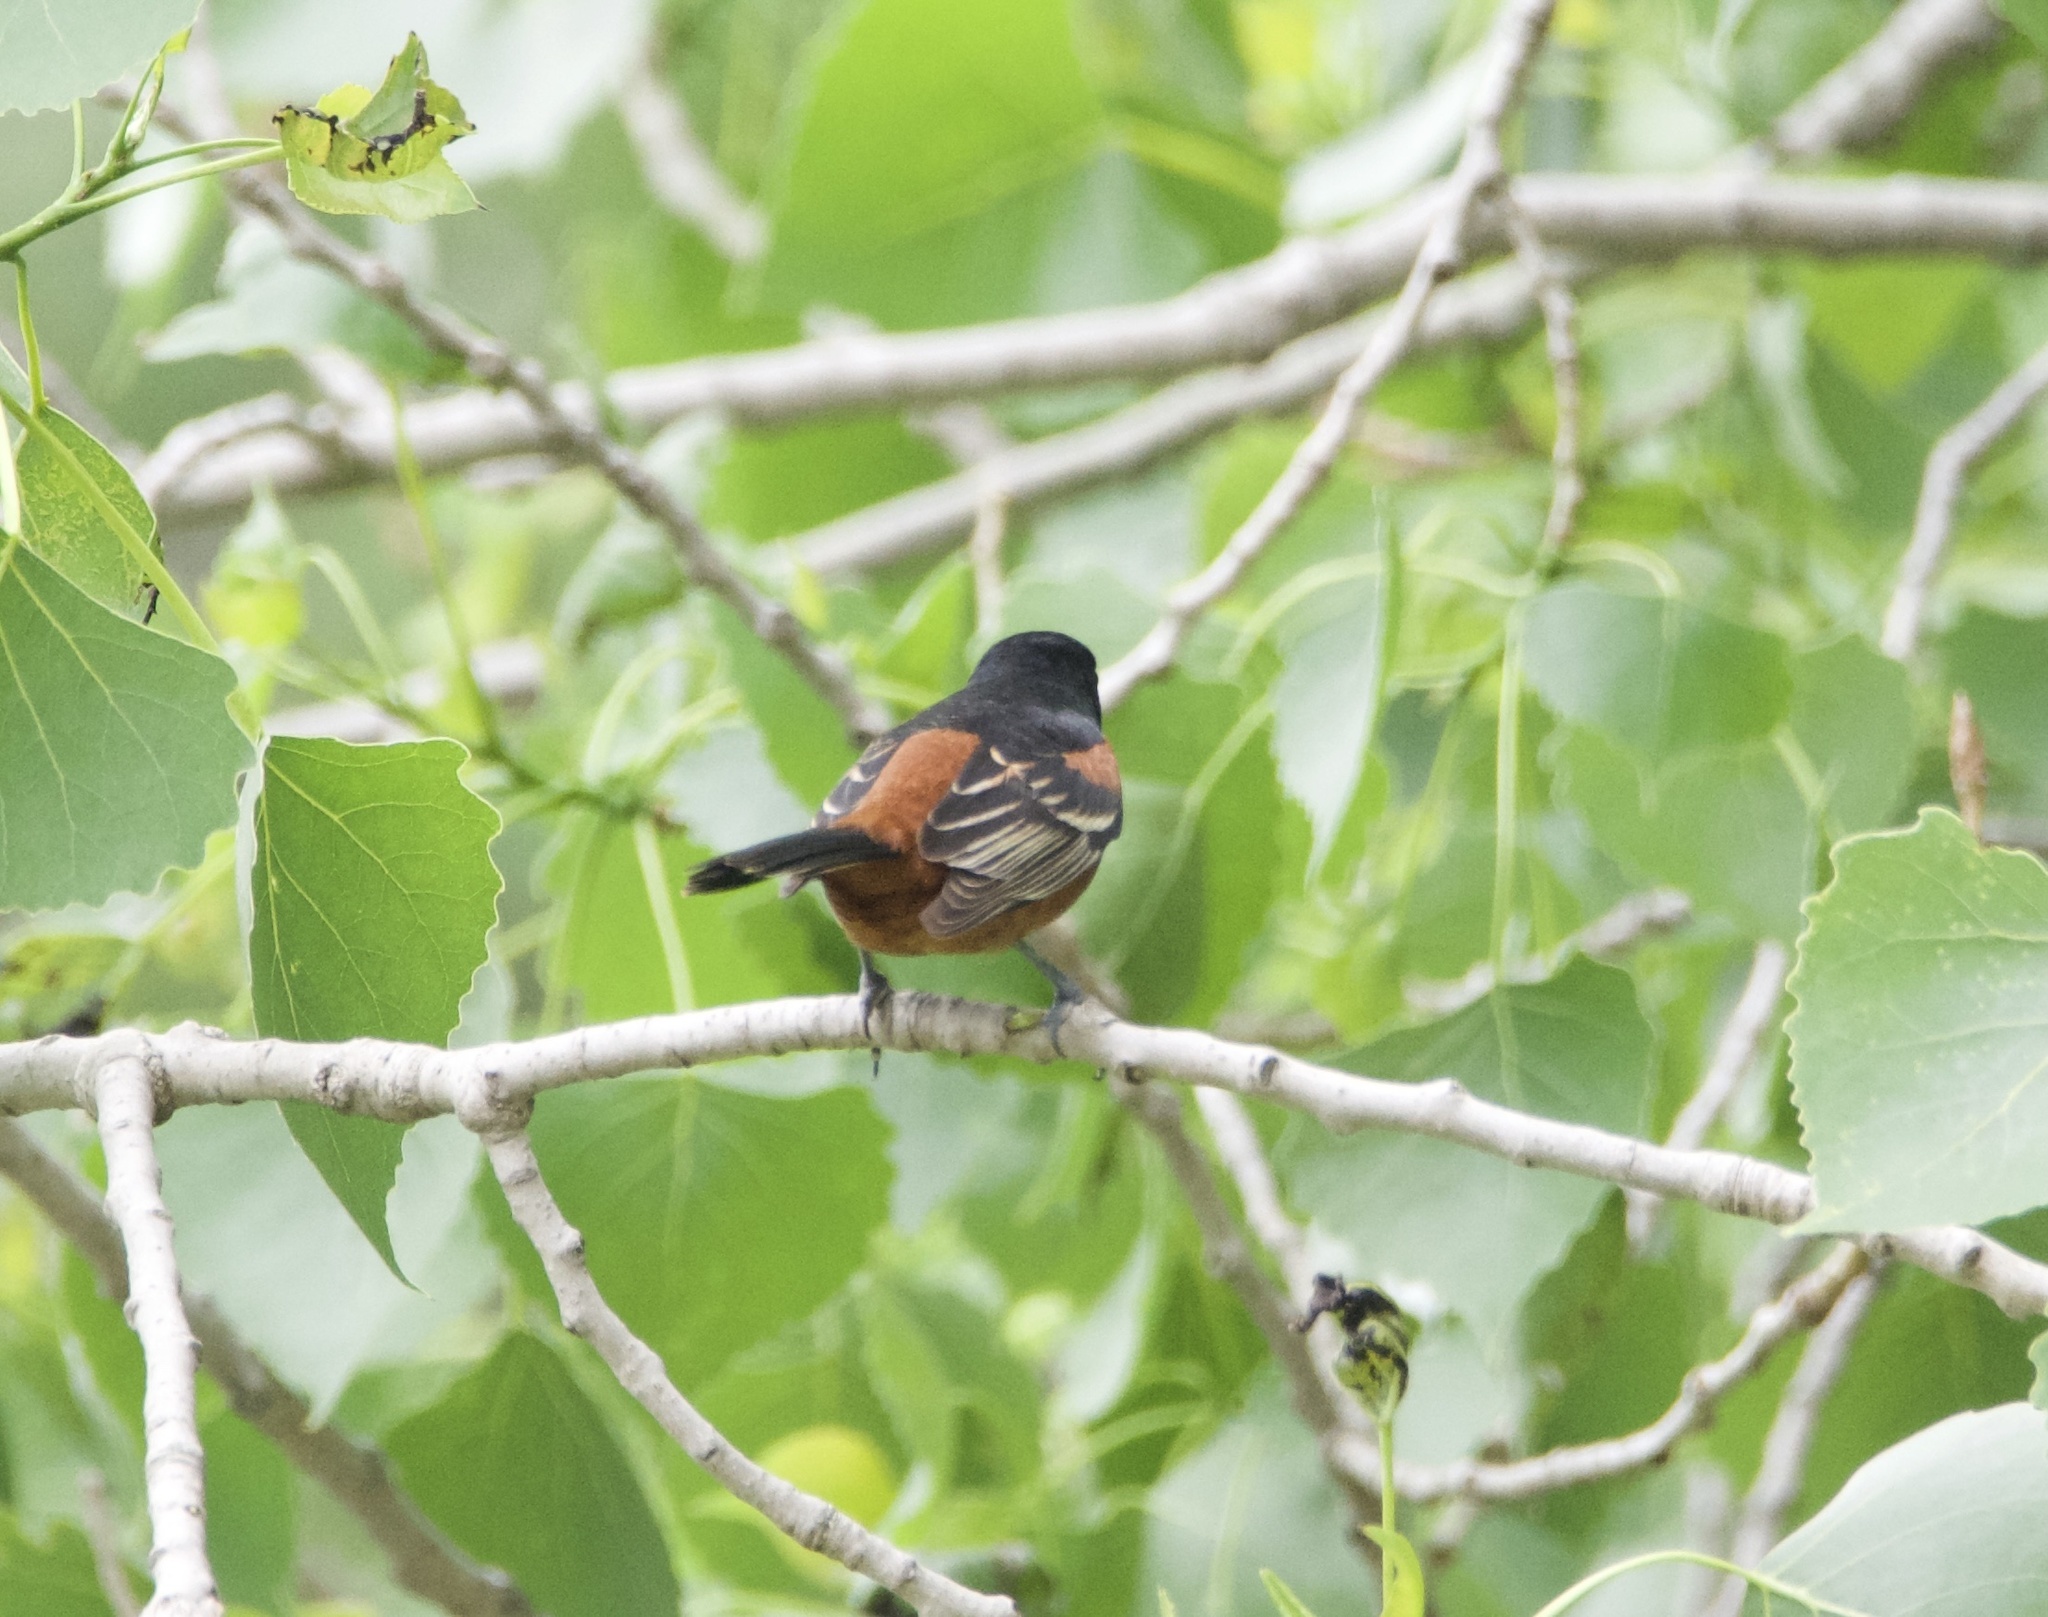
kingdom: Animalia
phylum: Chordata
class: Aves
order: Passeriformes
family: Icteridae
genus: Icterus
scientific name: Icterus spurius
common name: Orchard oriole
